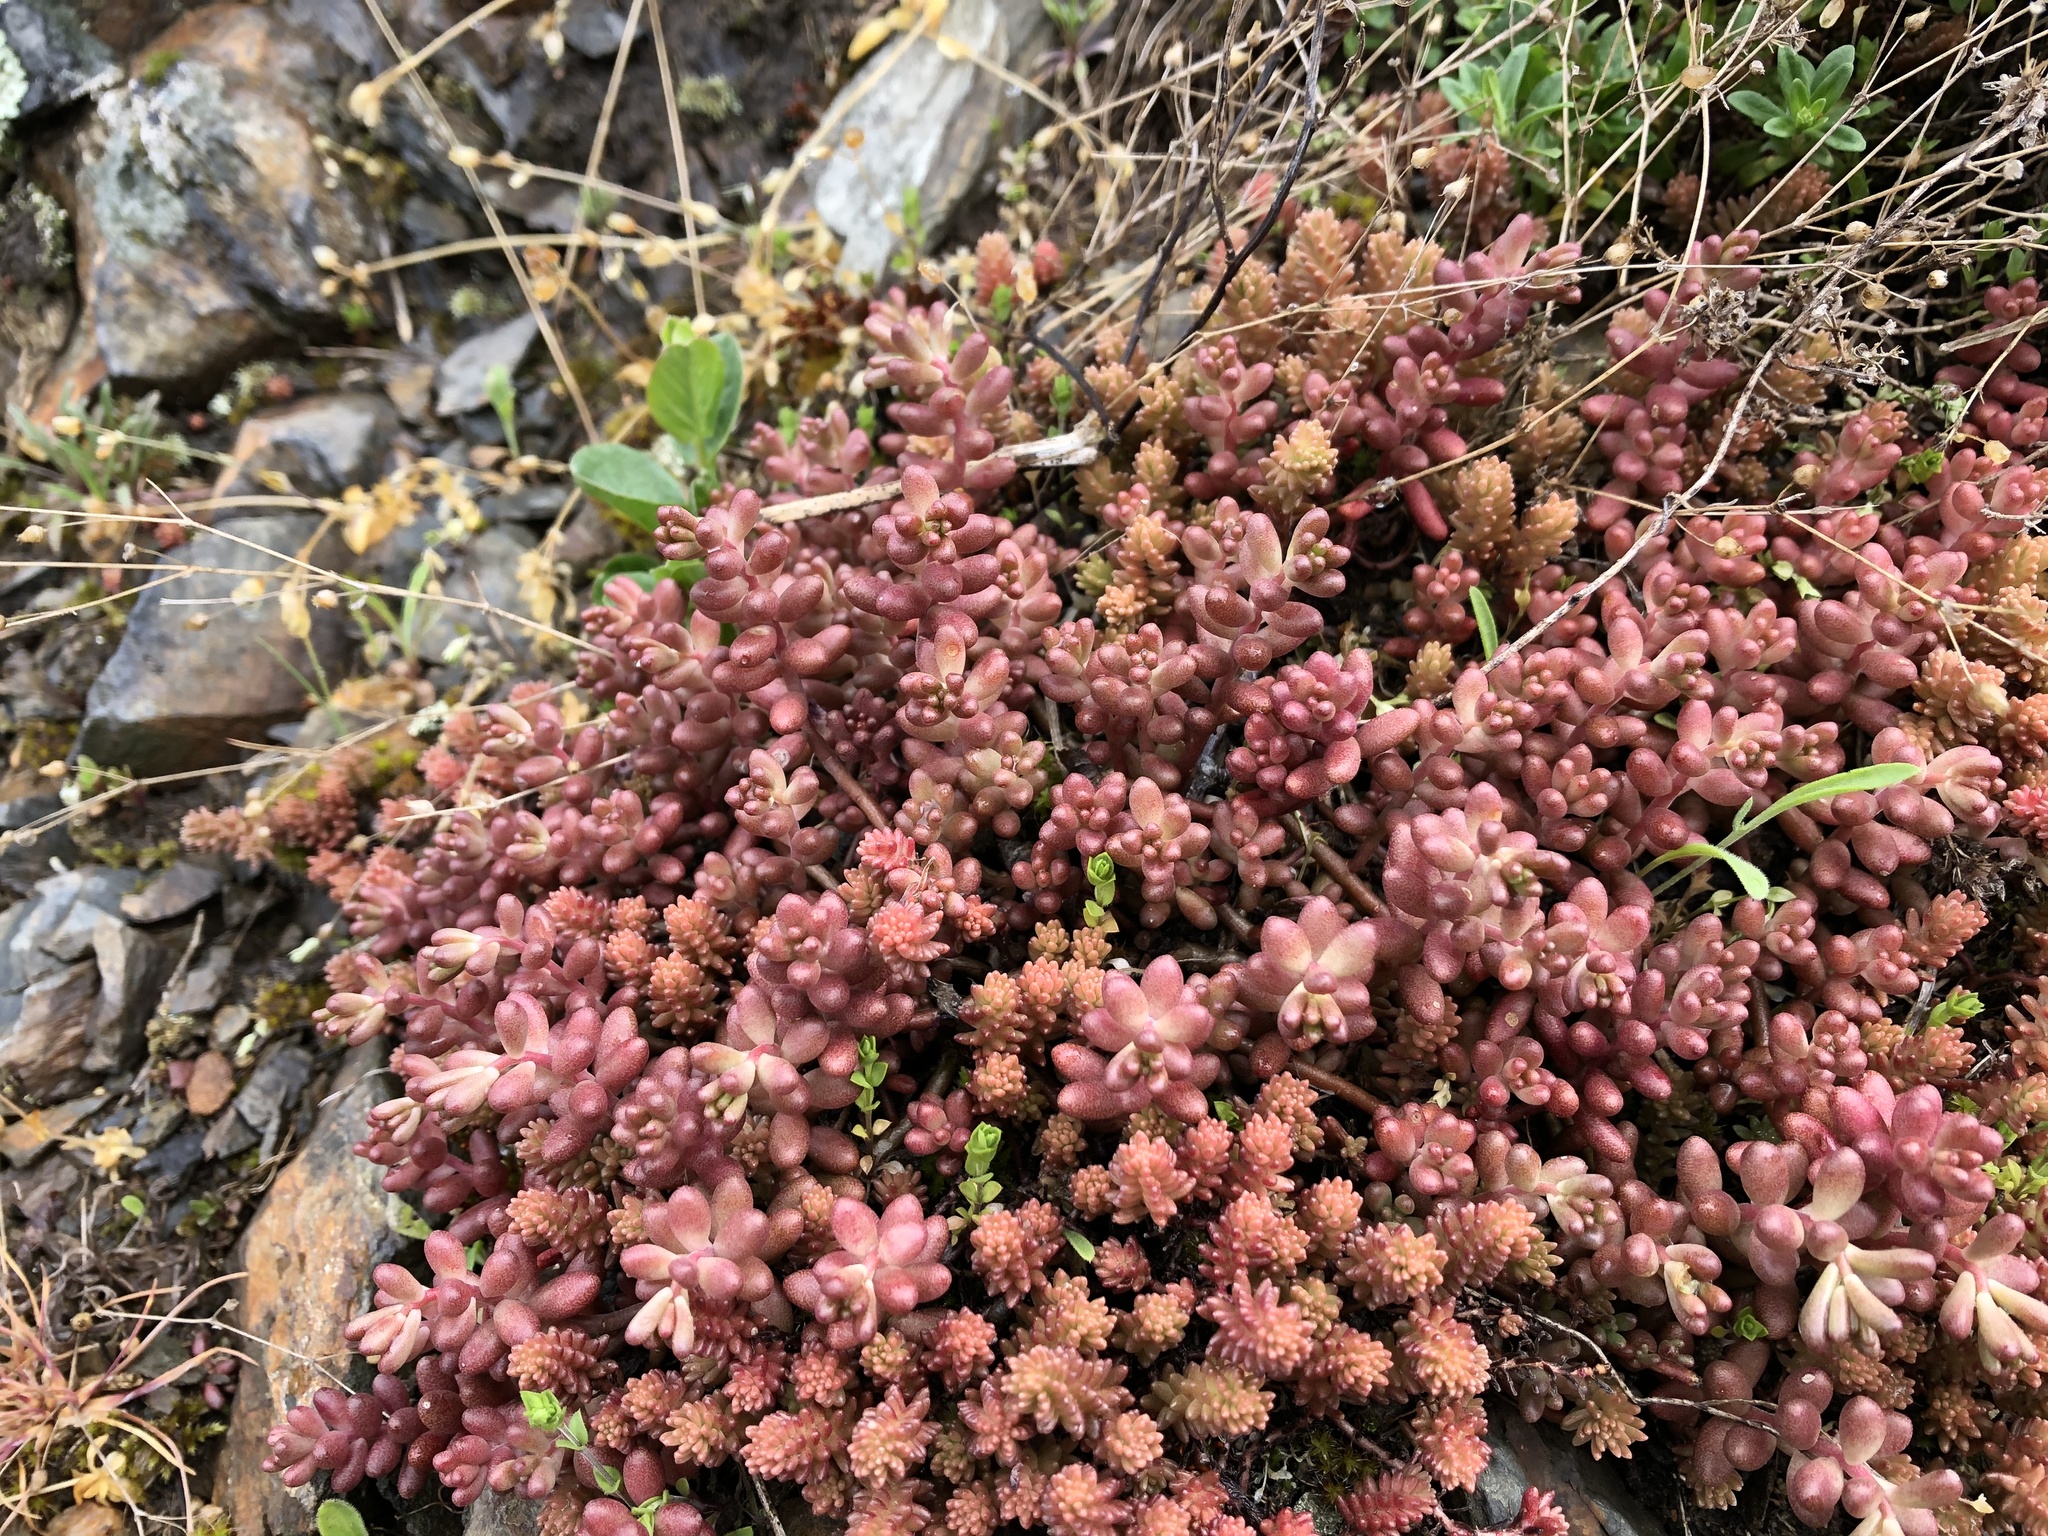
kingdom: Plantae
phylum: Tracheophyta
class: Magnoliopsida
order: Saxifragales
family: Crassulaceae
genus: Sedum
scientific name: Sedum album
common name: White stonecrop
